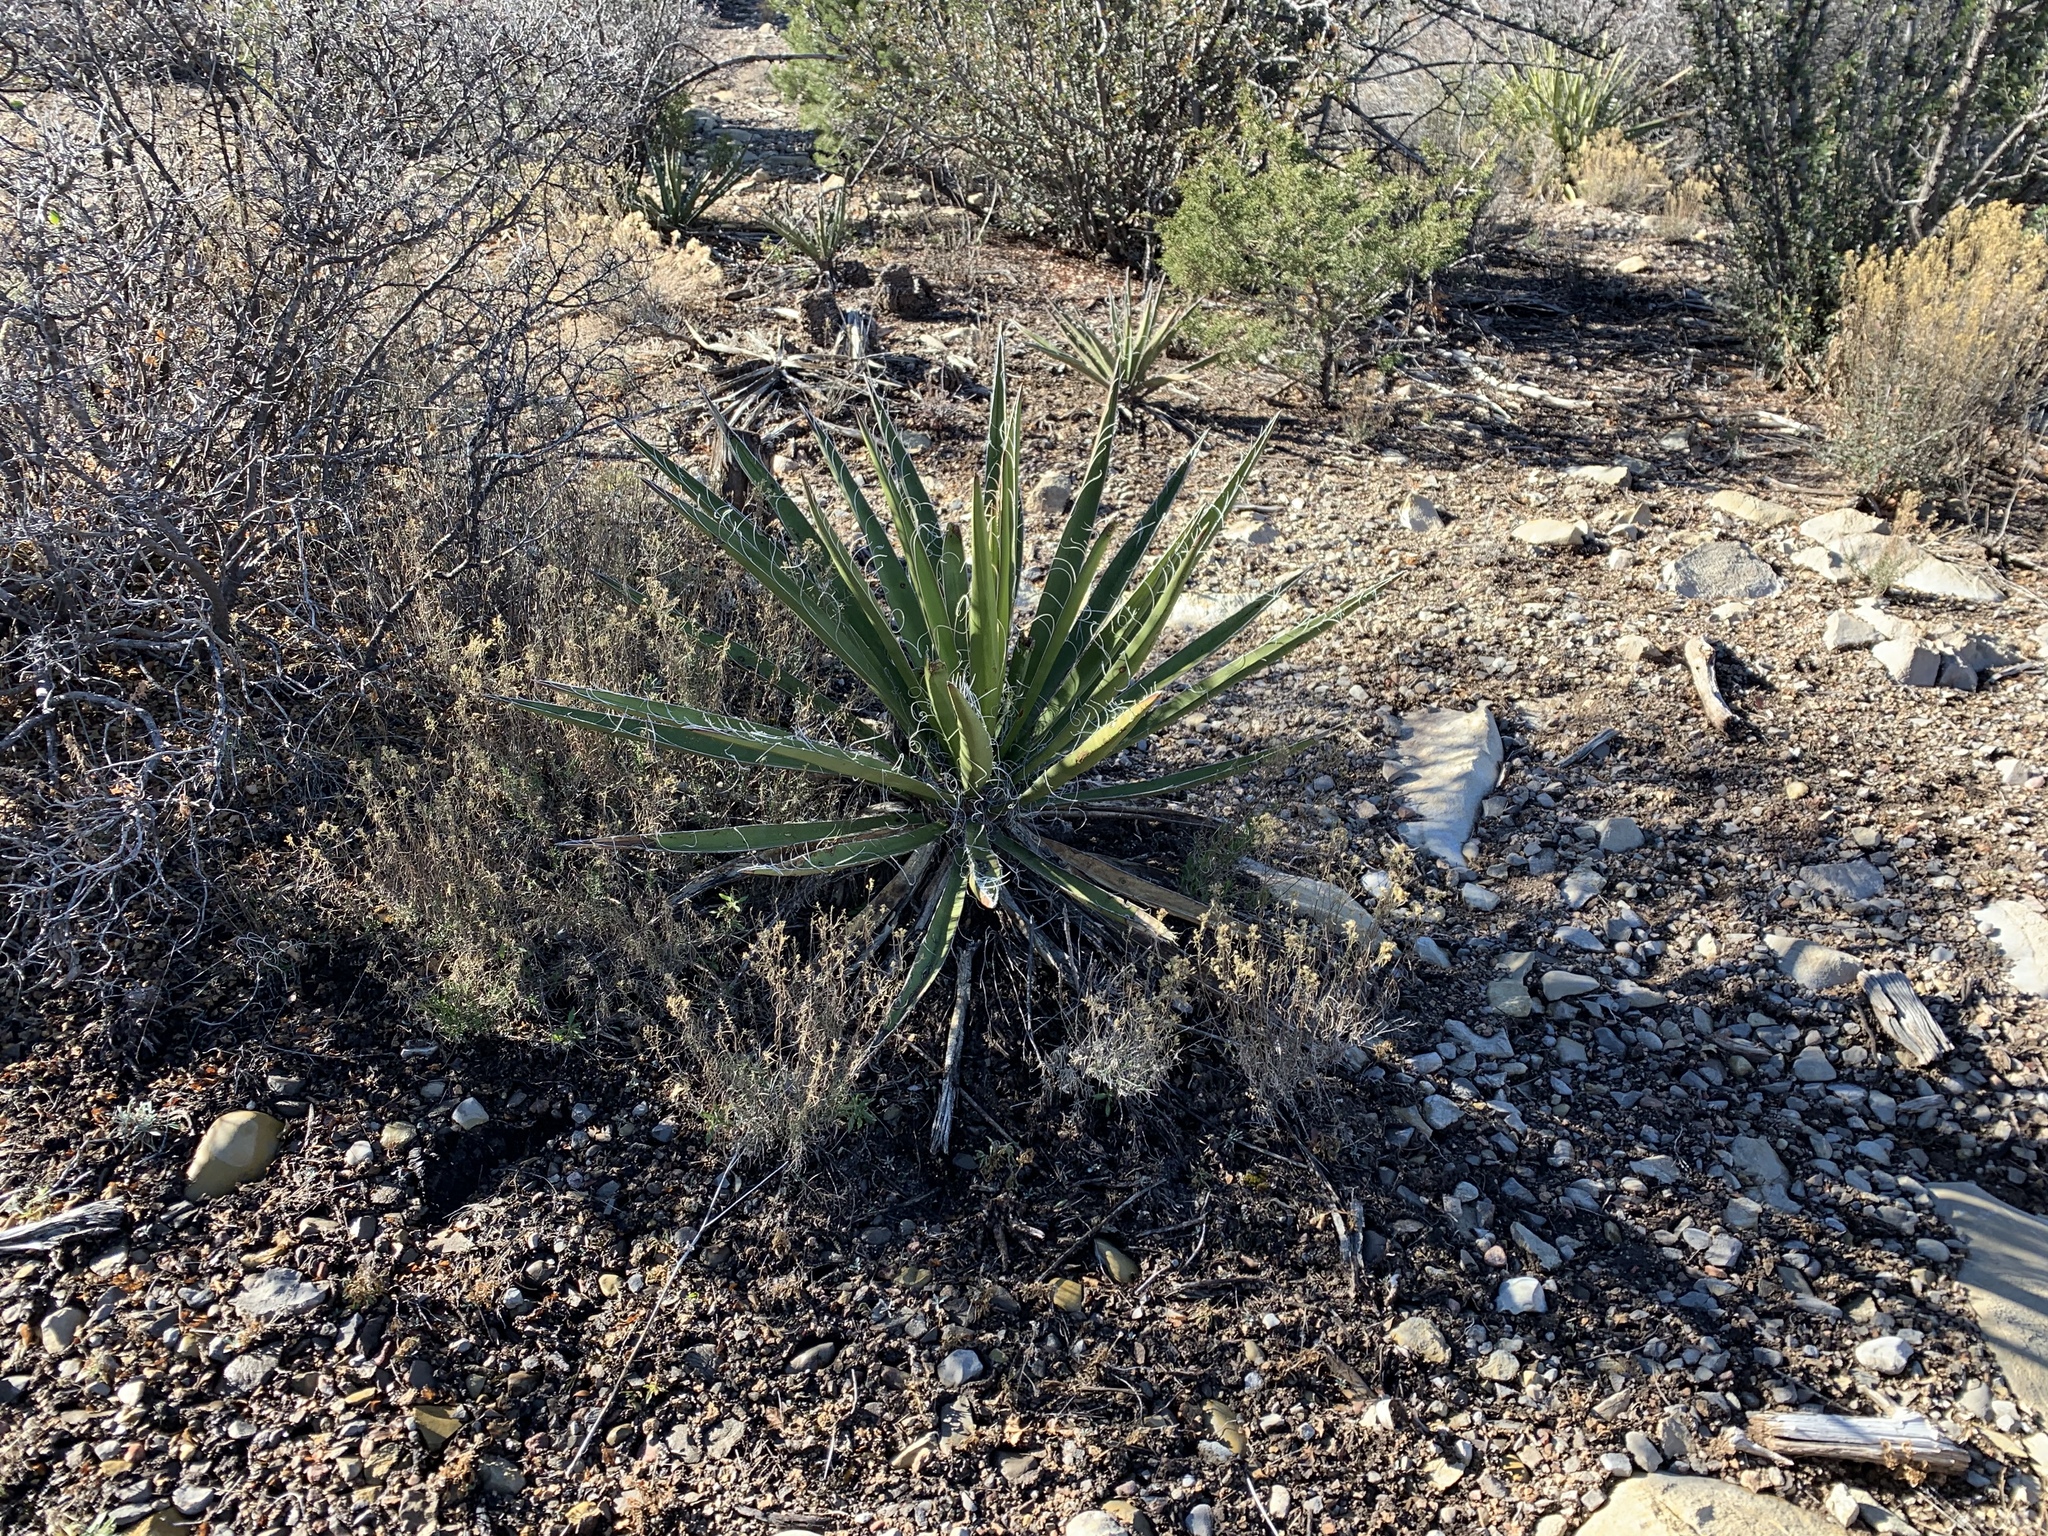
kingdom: Plantae
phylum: Tracheophyta
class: Liliopsida
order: Asparagales
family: Asparagaceae
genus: Yucca
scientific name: Yucca baccata
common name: Banana yucca
